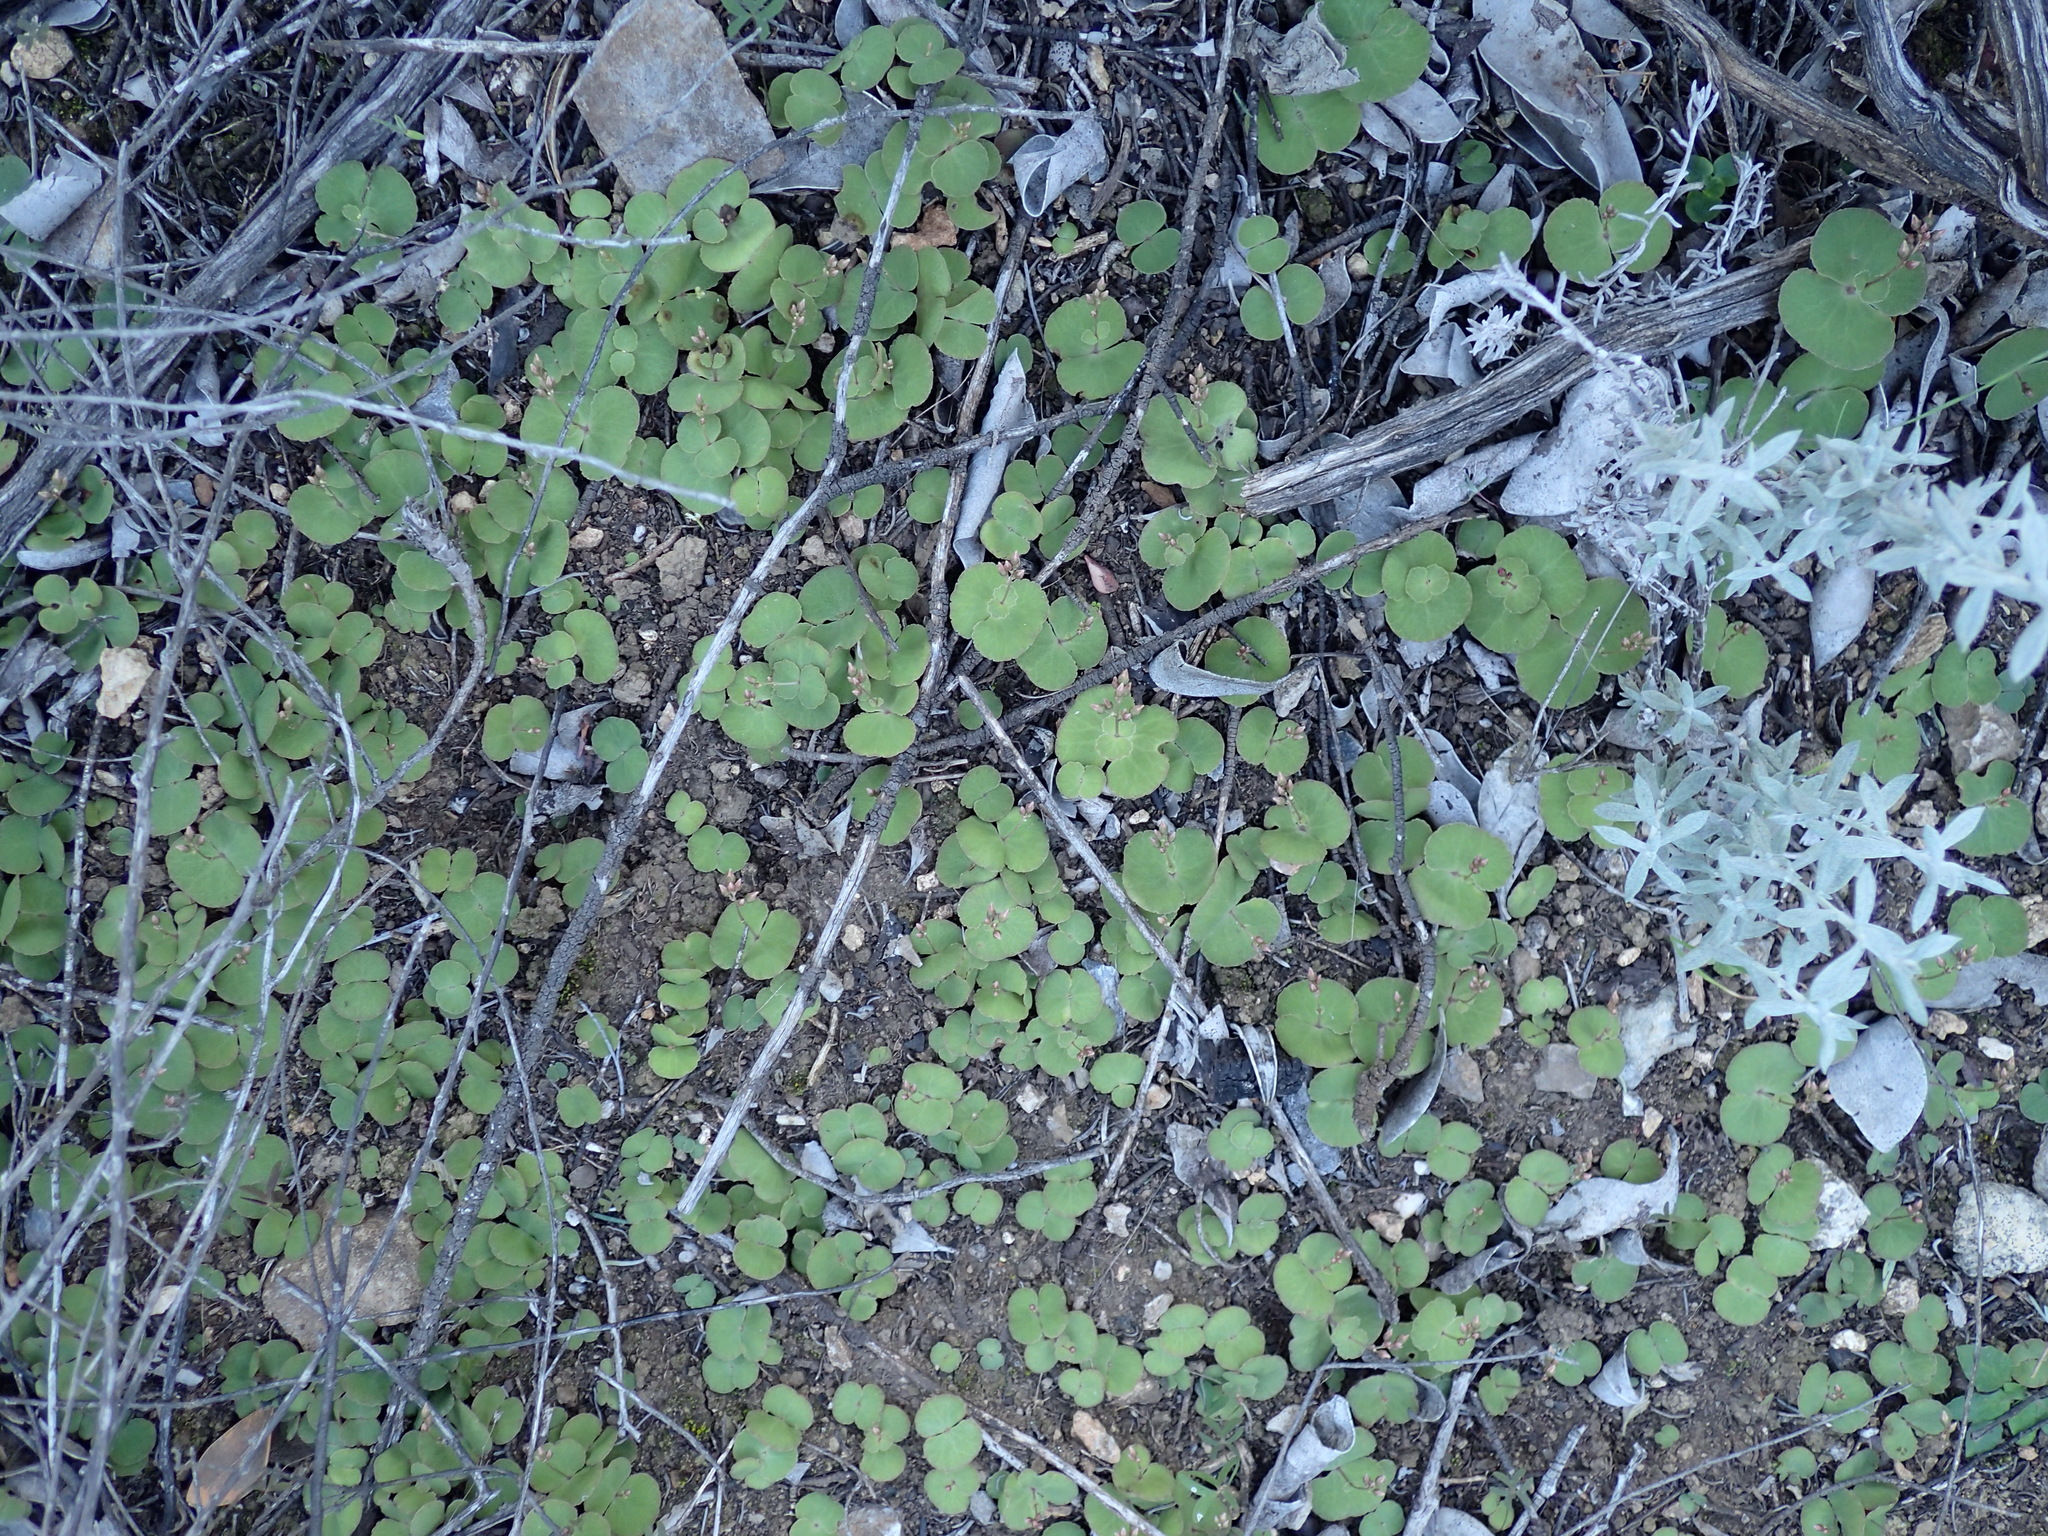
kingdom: Plantae
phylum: Tracheophyta
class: Magnoliopsida
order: Saxifragales
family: Crassulaceae
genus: Crassula
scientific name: Crassula umbella
